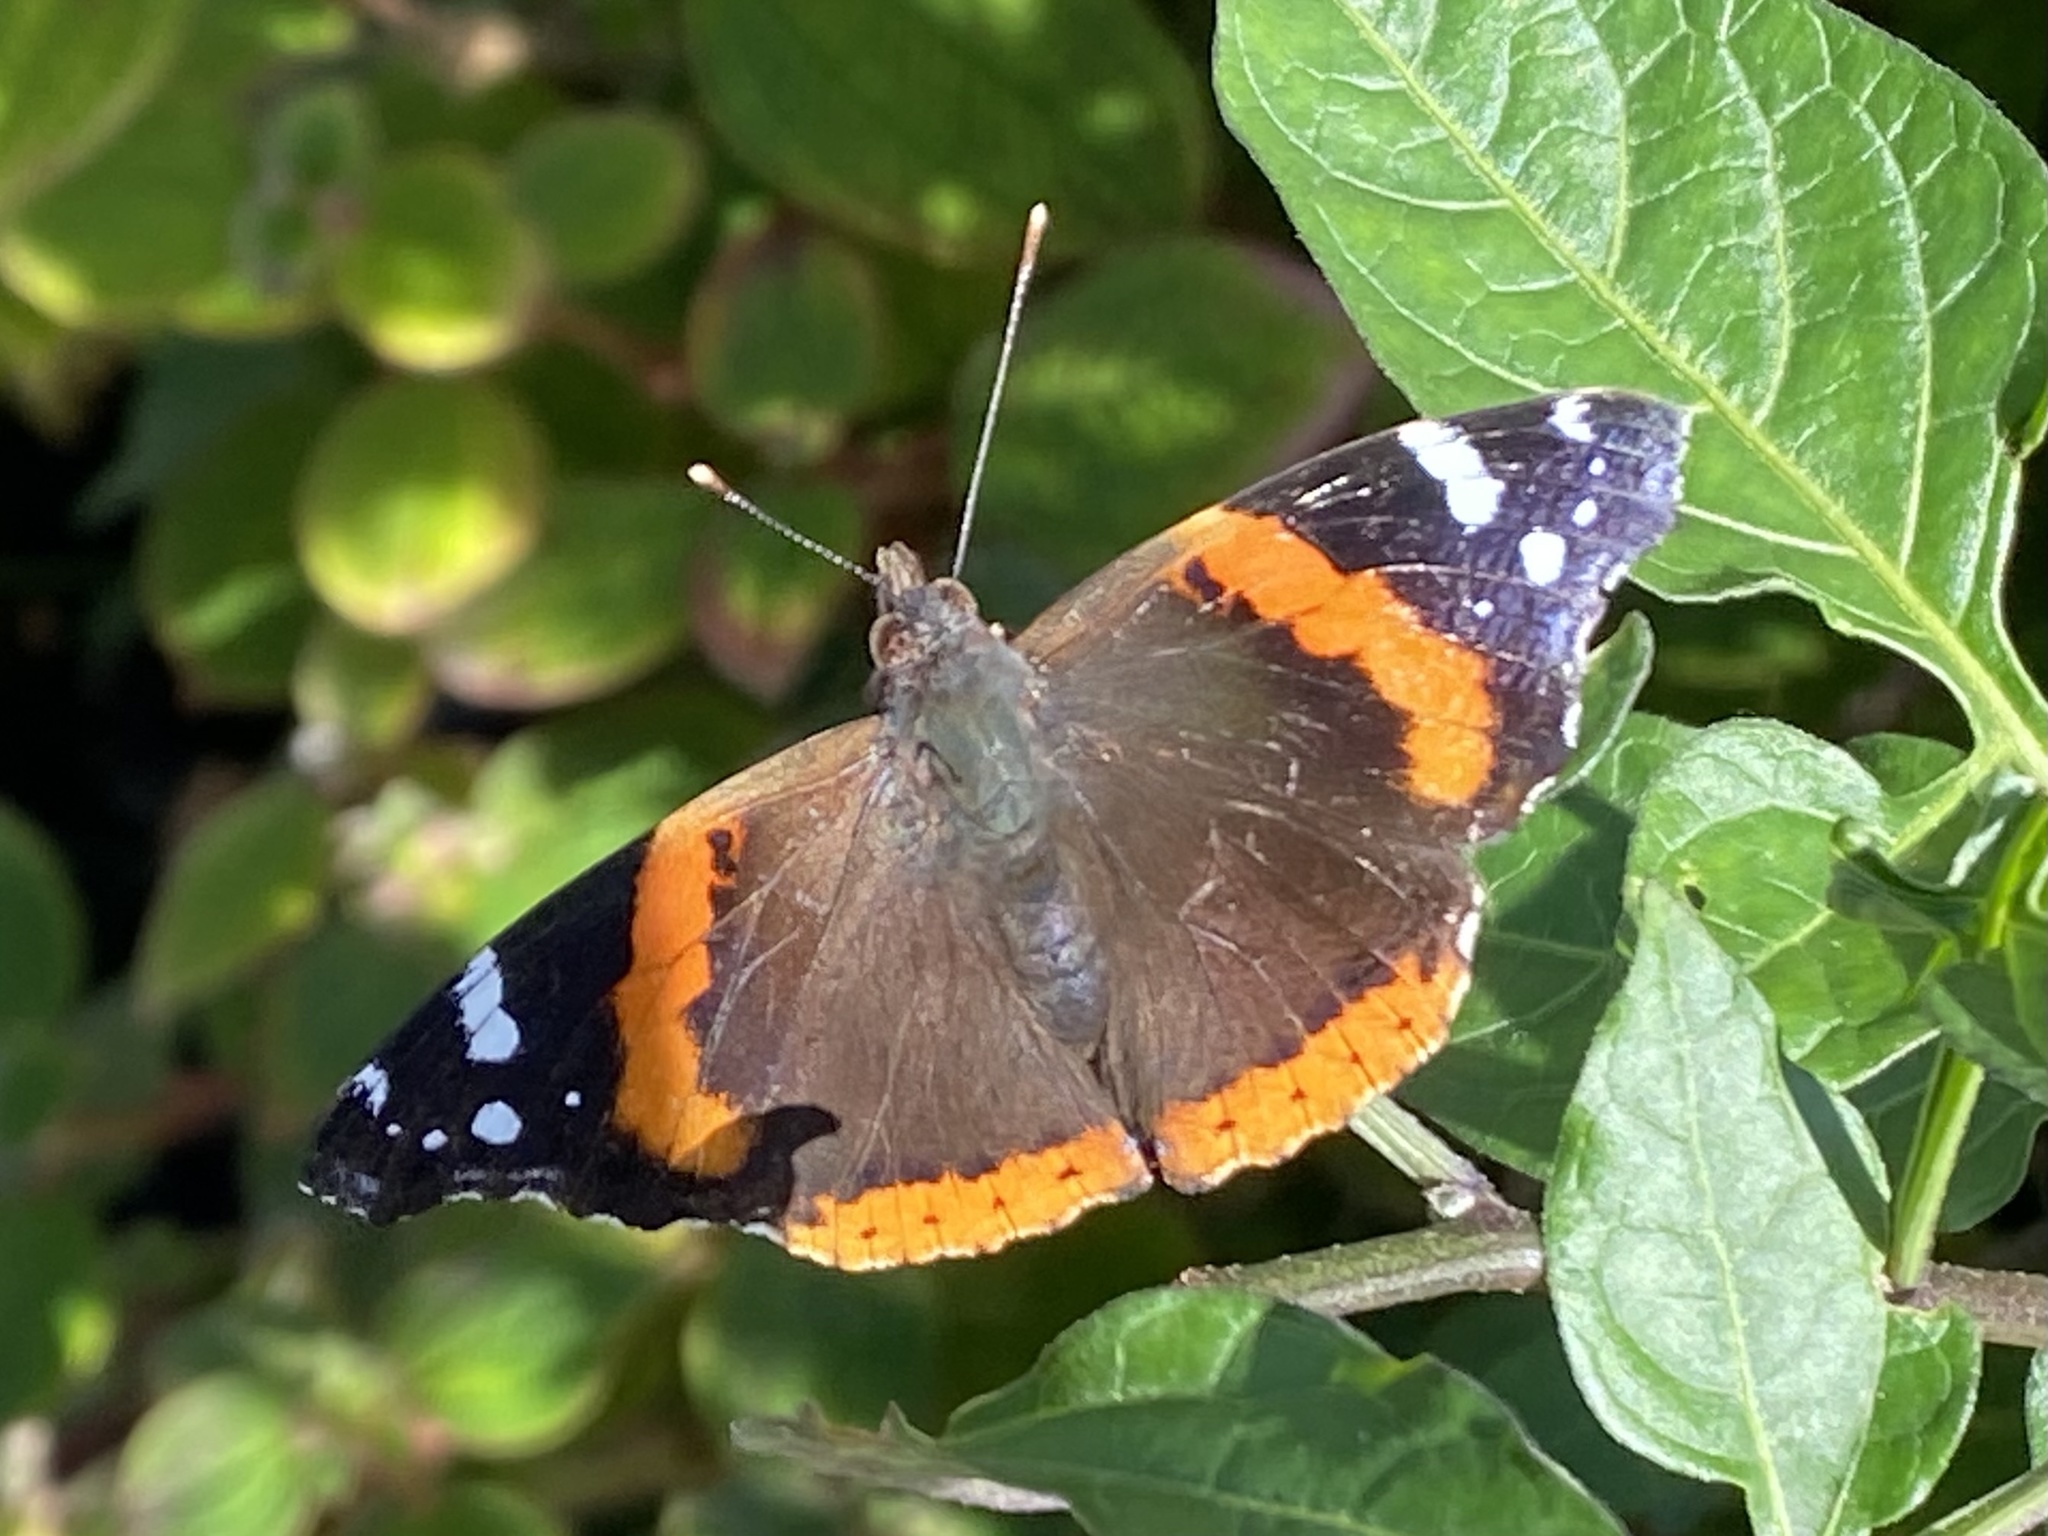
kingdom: Animalia
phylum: Arthropoda
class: Insecta
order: Lepidoptera
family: Nymphalidae
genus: Vanessa
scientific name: Vanessa atalanta
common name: Red admiral
